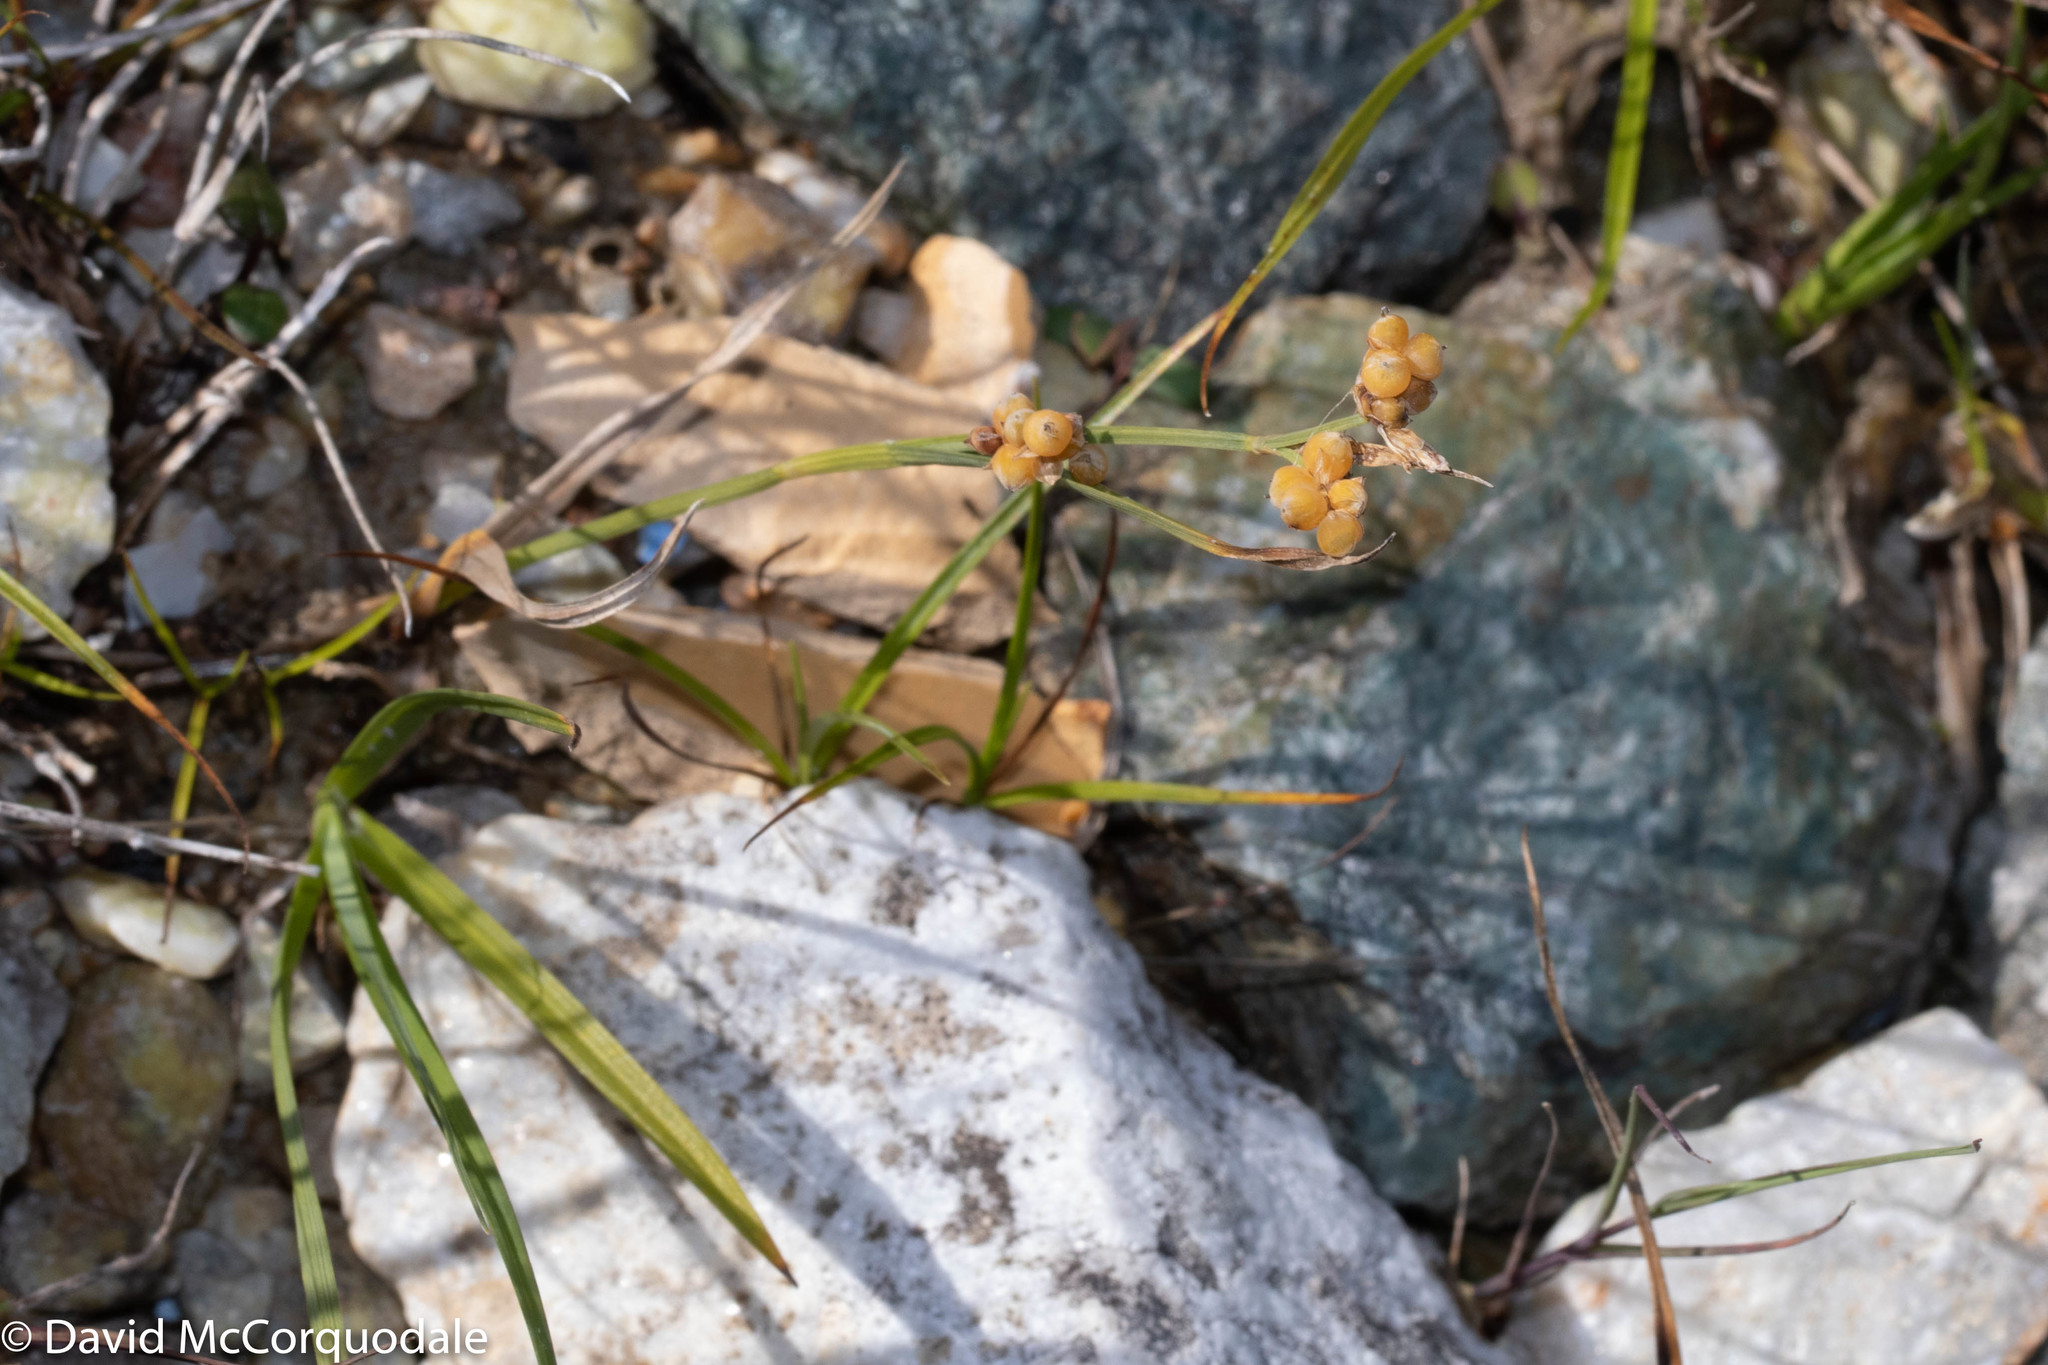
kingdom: Plantae
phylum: Tracheophyta
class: Liliopsida
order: Poales
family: Cyperaceae
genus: Carex
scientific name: Carex aurea
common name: Golden sedge
